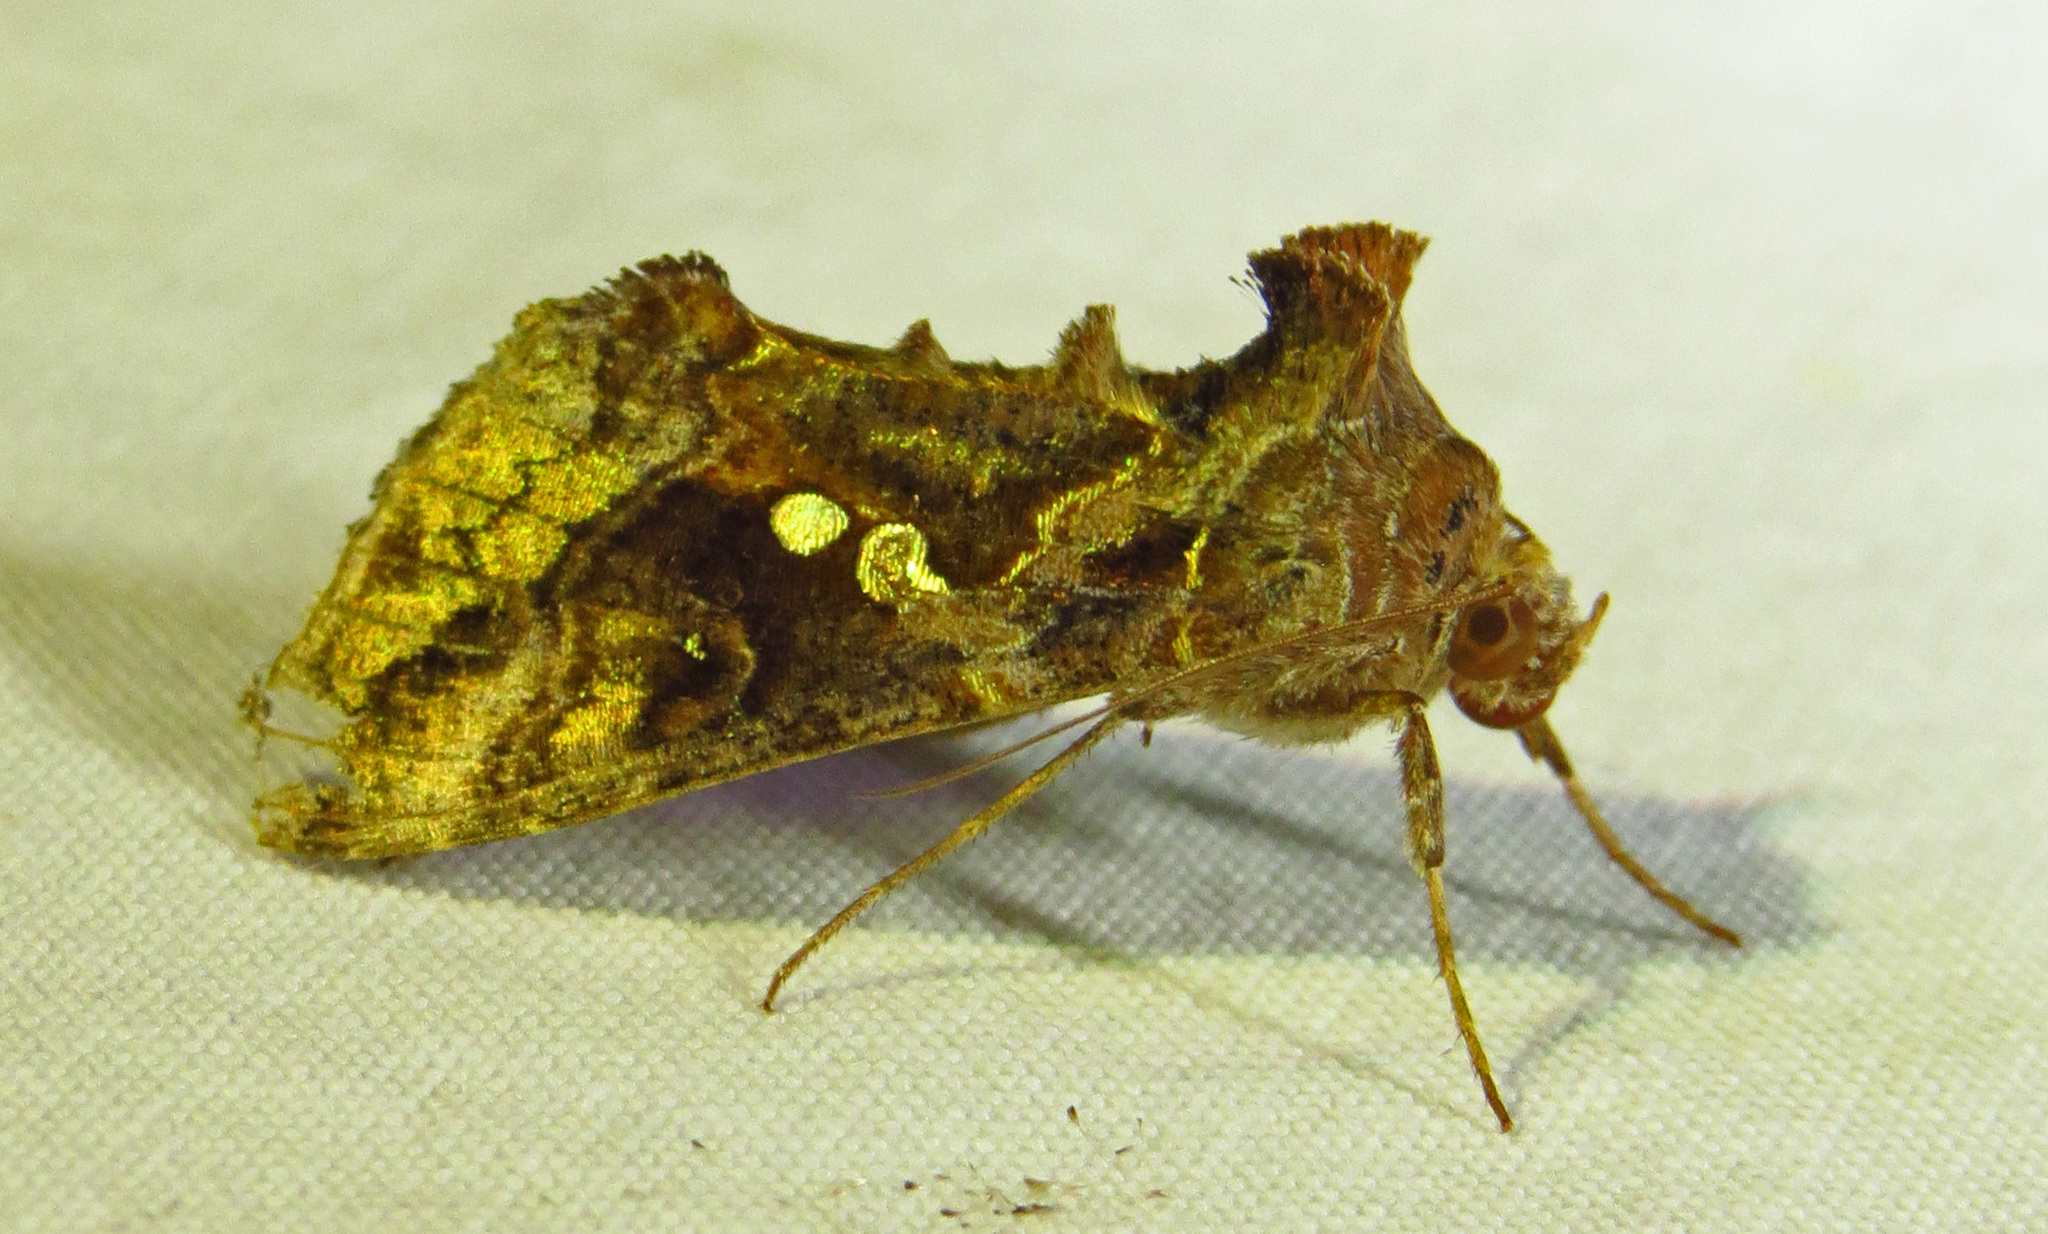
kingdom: Animalia
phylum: Arthropoda
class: Insecta
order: Lepidoptera
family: Noctuidae
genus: Chrysodeixis
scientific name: Chrysodeixis includens
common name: Cutworm moth
